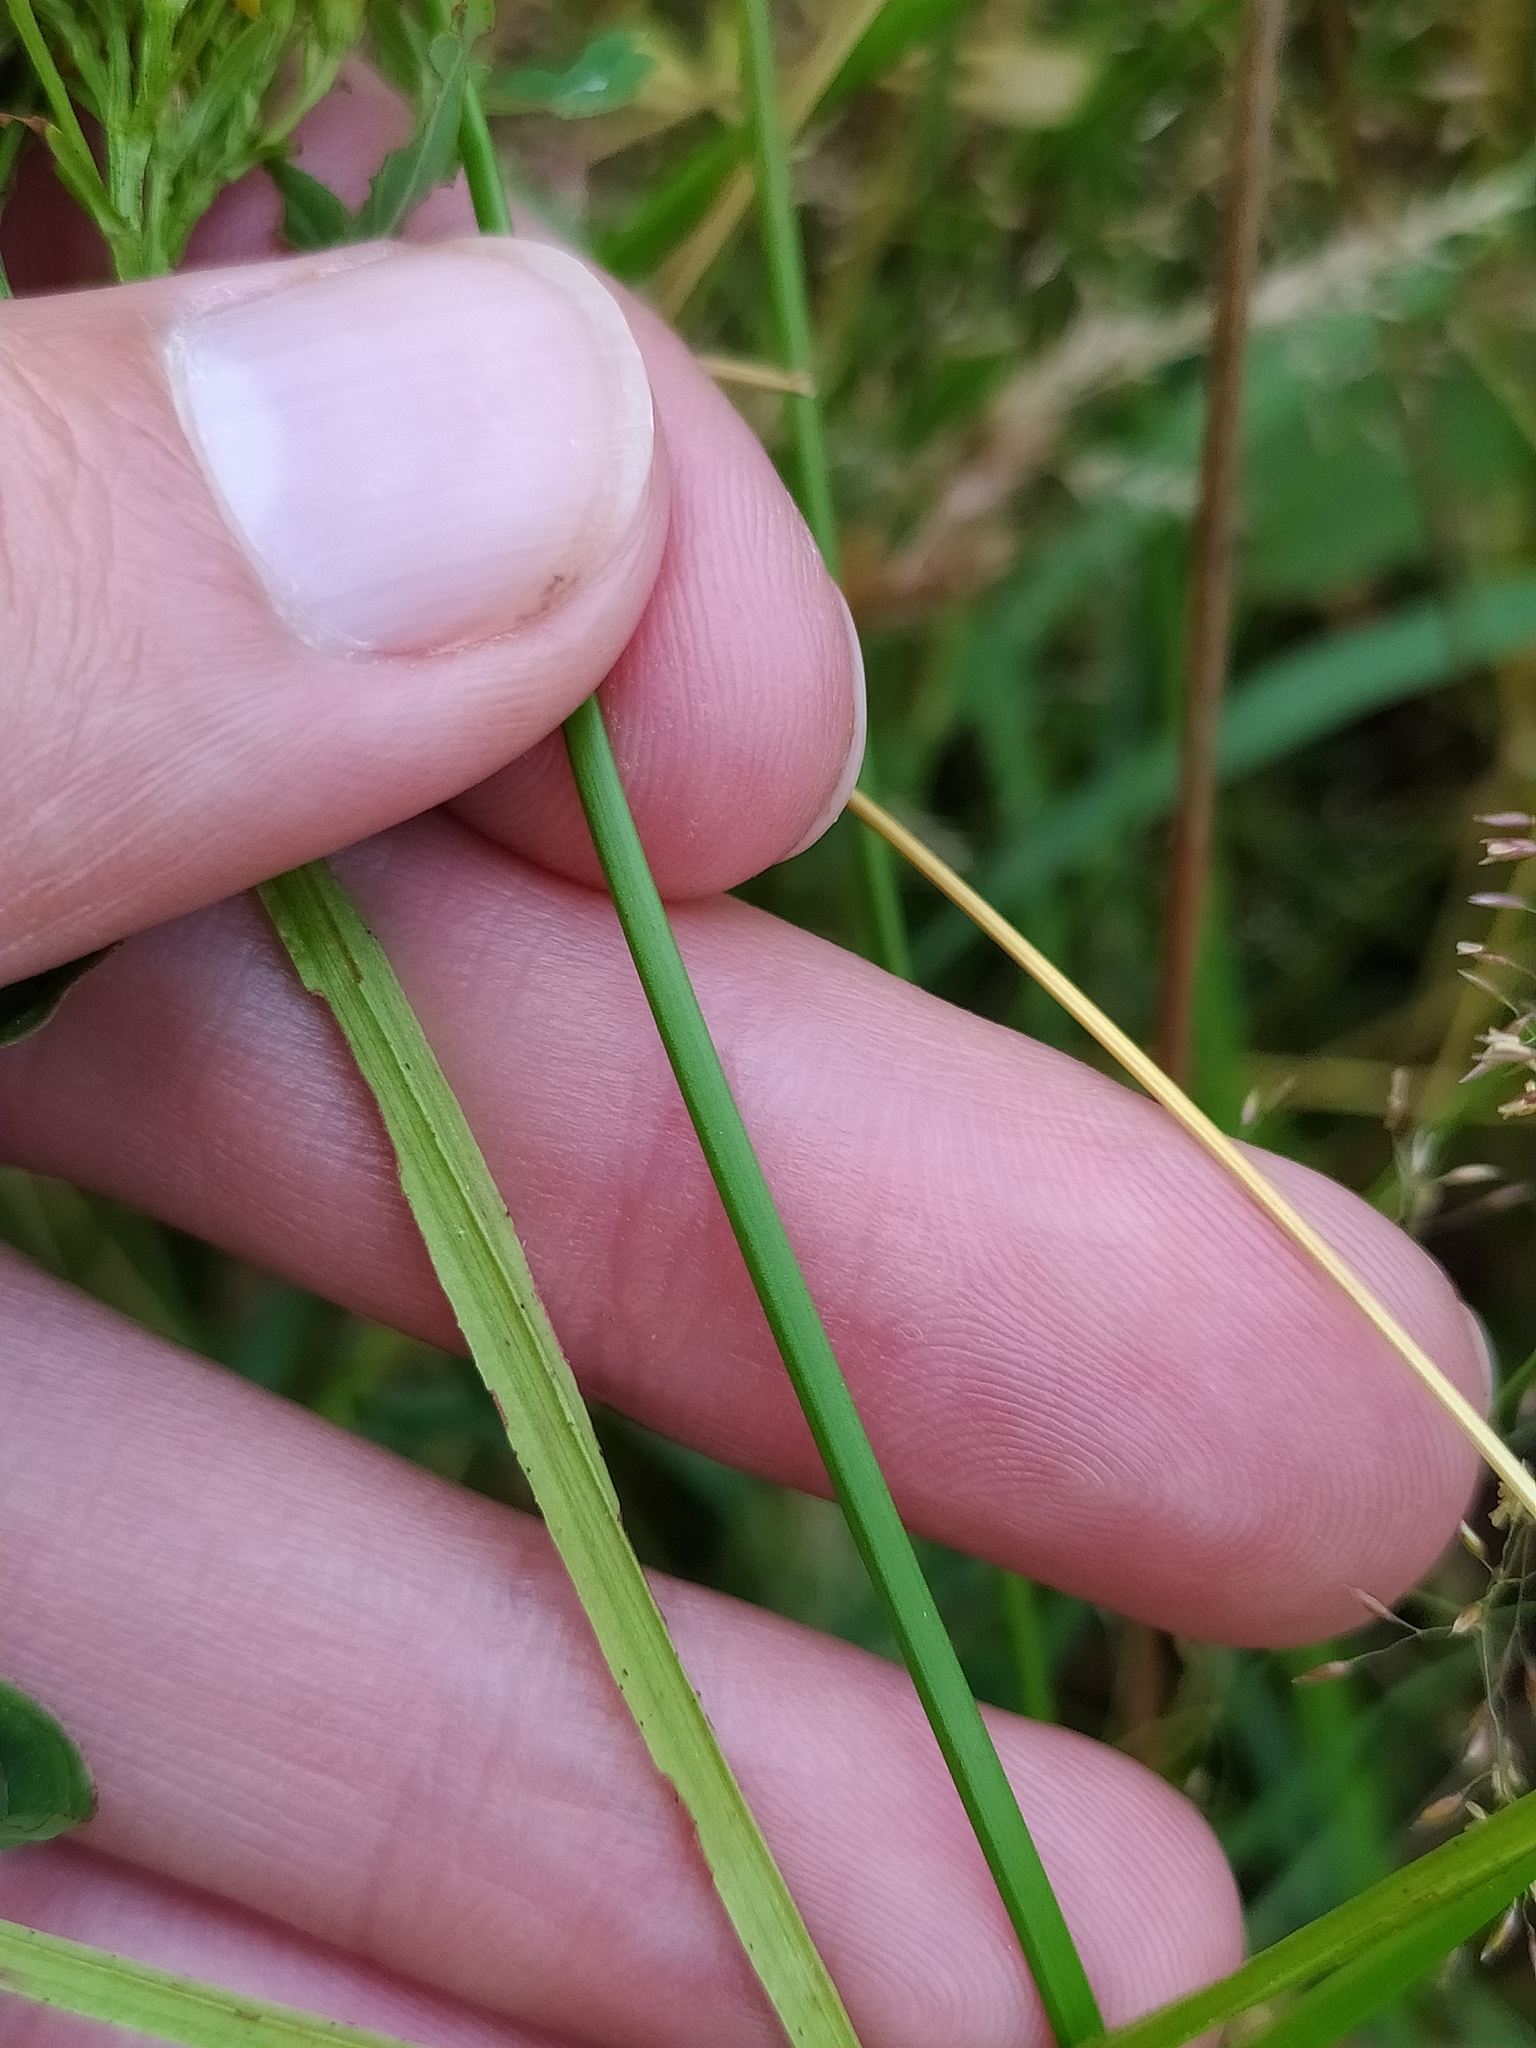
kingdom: Plantae
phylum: Tracheophyta
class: Magnoliopsida
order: Malpighiales
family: Hypericaceae
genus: Hypericum
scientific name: Hypericum tetrapterum
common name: Square-stalked st. john's-wort
